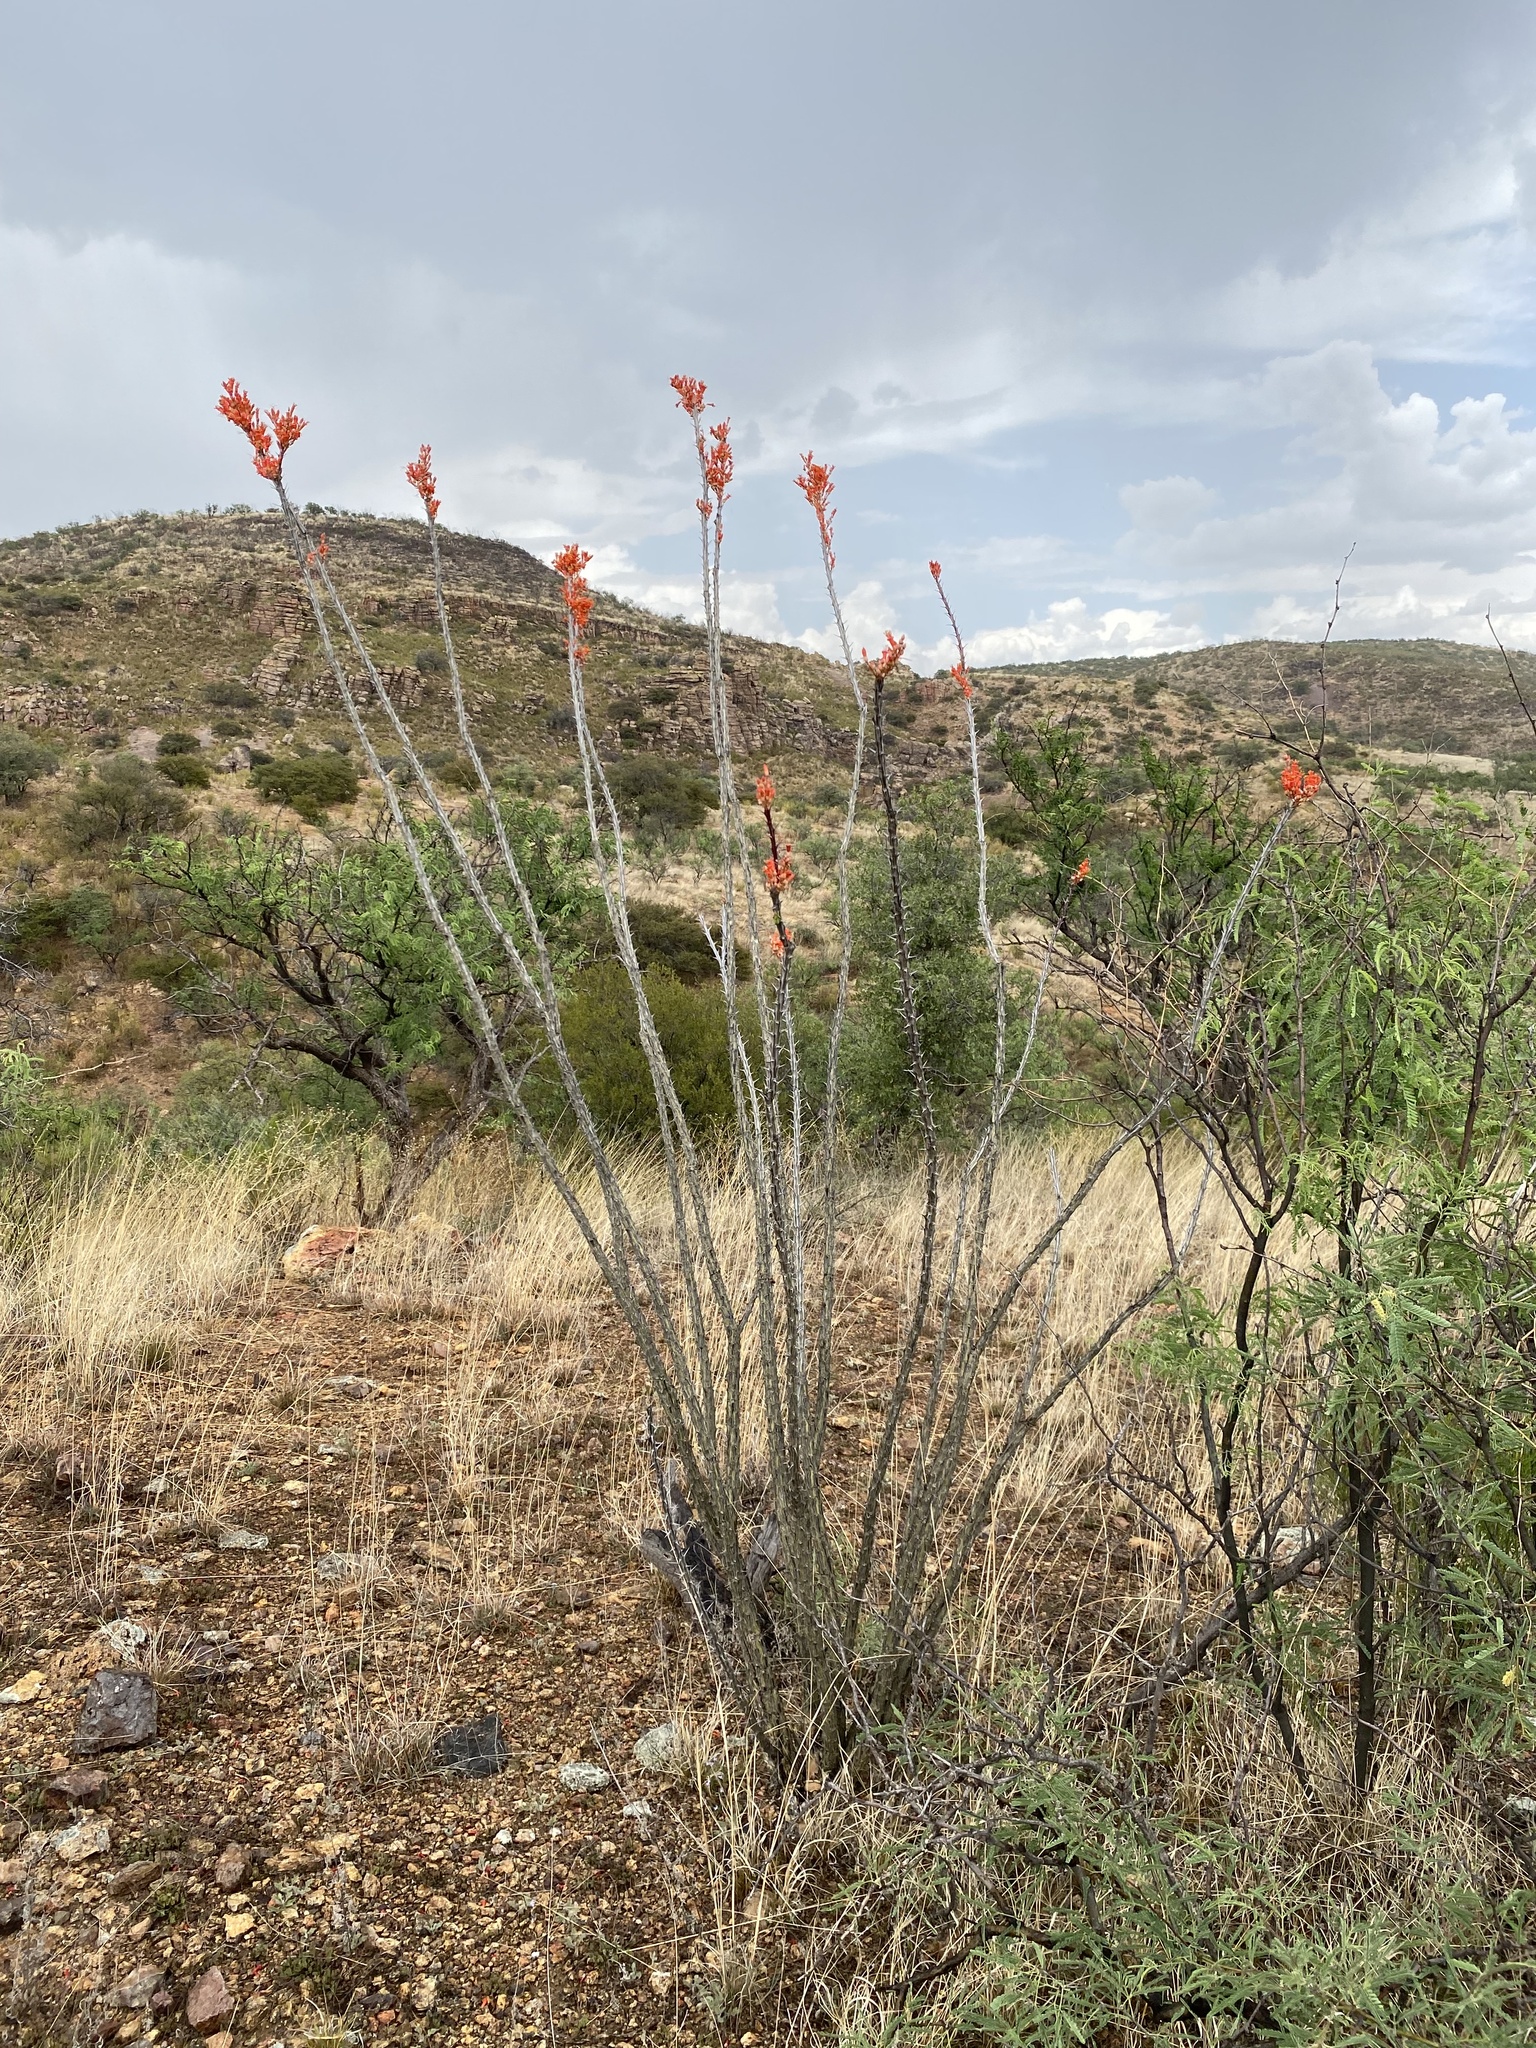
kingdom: Plantae
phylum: Tracheophyta
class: Magnoliopsida
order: Ericales
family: Fouquieriaceae
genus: Fouquieria
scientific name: Fouquieria splendens
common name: Vine-cactus
